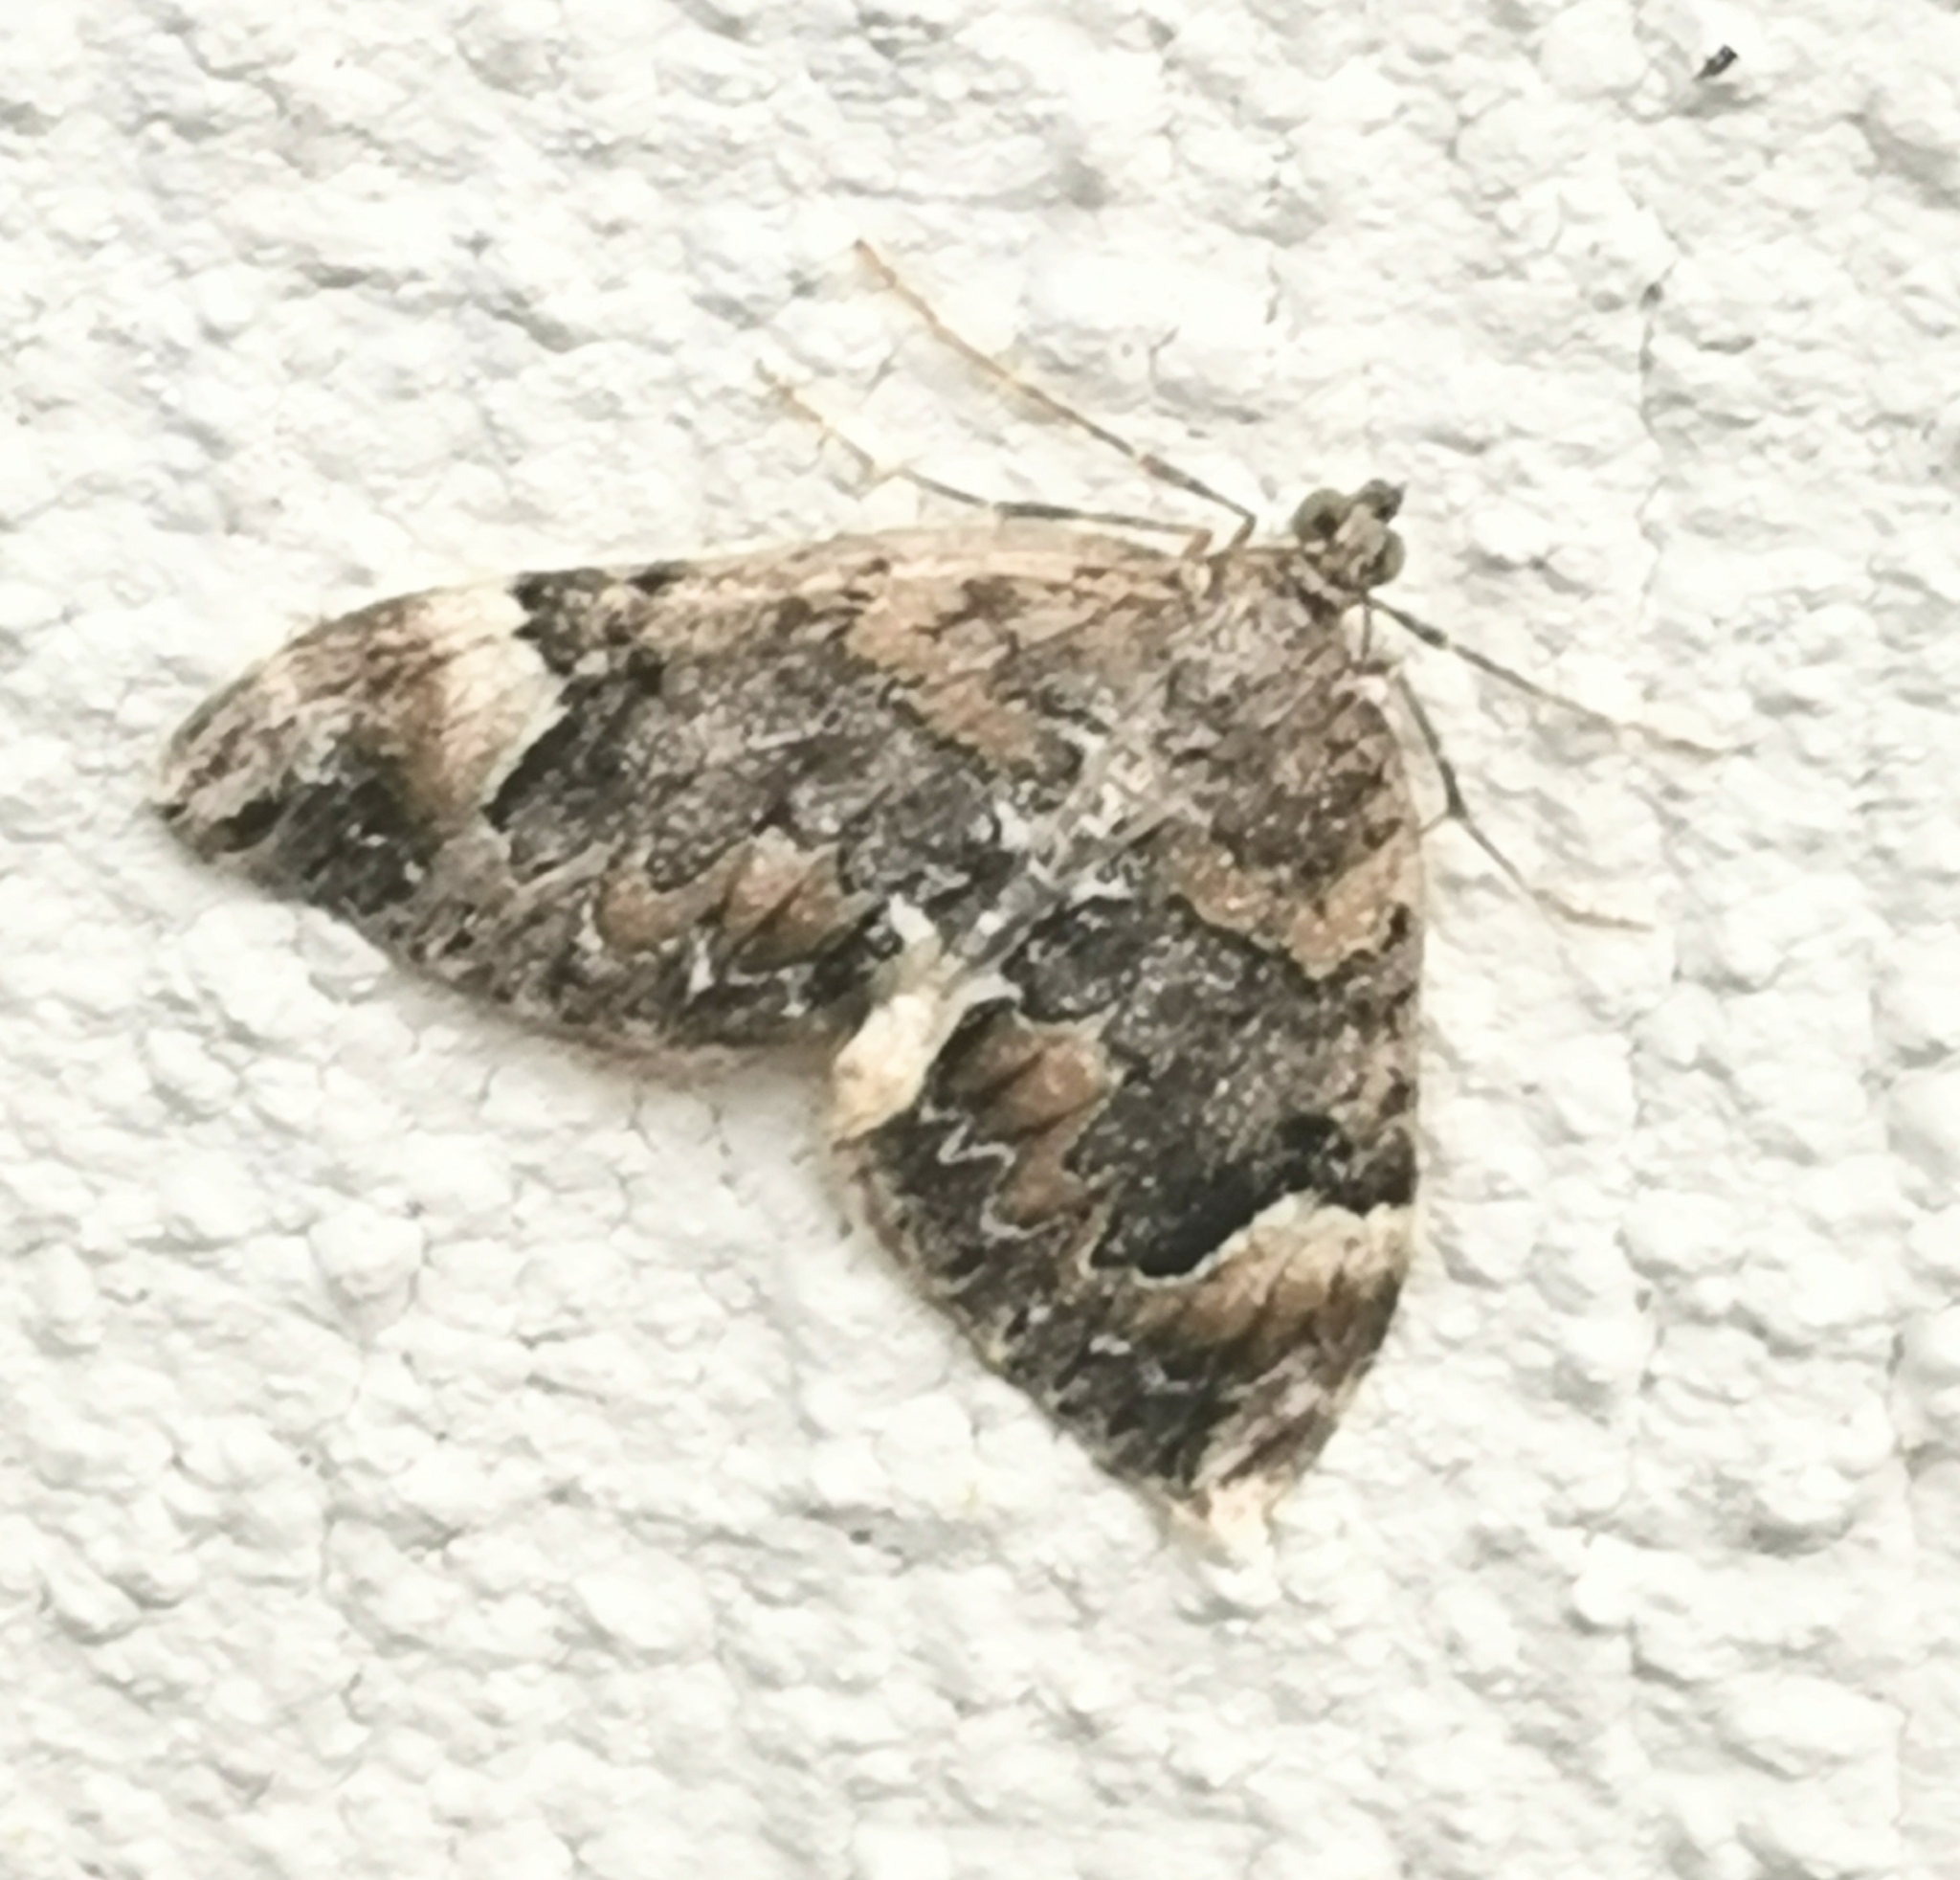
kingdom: Animalia
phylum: Arthropoda
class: Insecta
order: Lepidoptera
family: Geometridae
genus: Dysstroma
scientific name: Dysstroma citrata
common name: Dark marbled carpet
